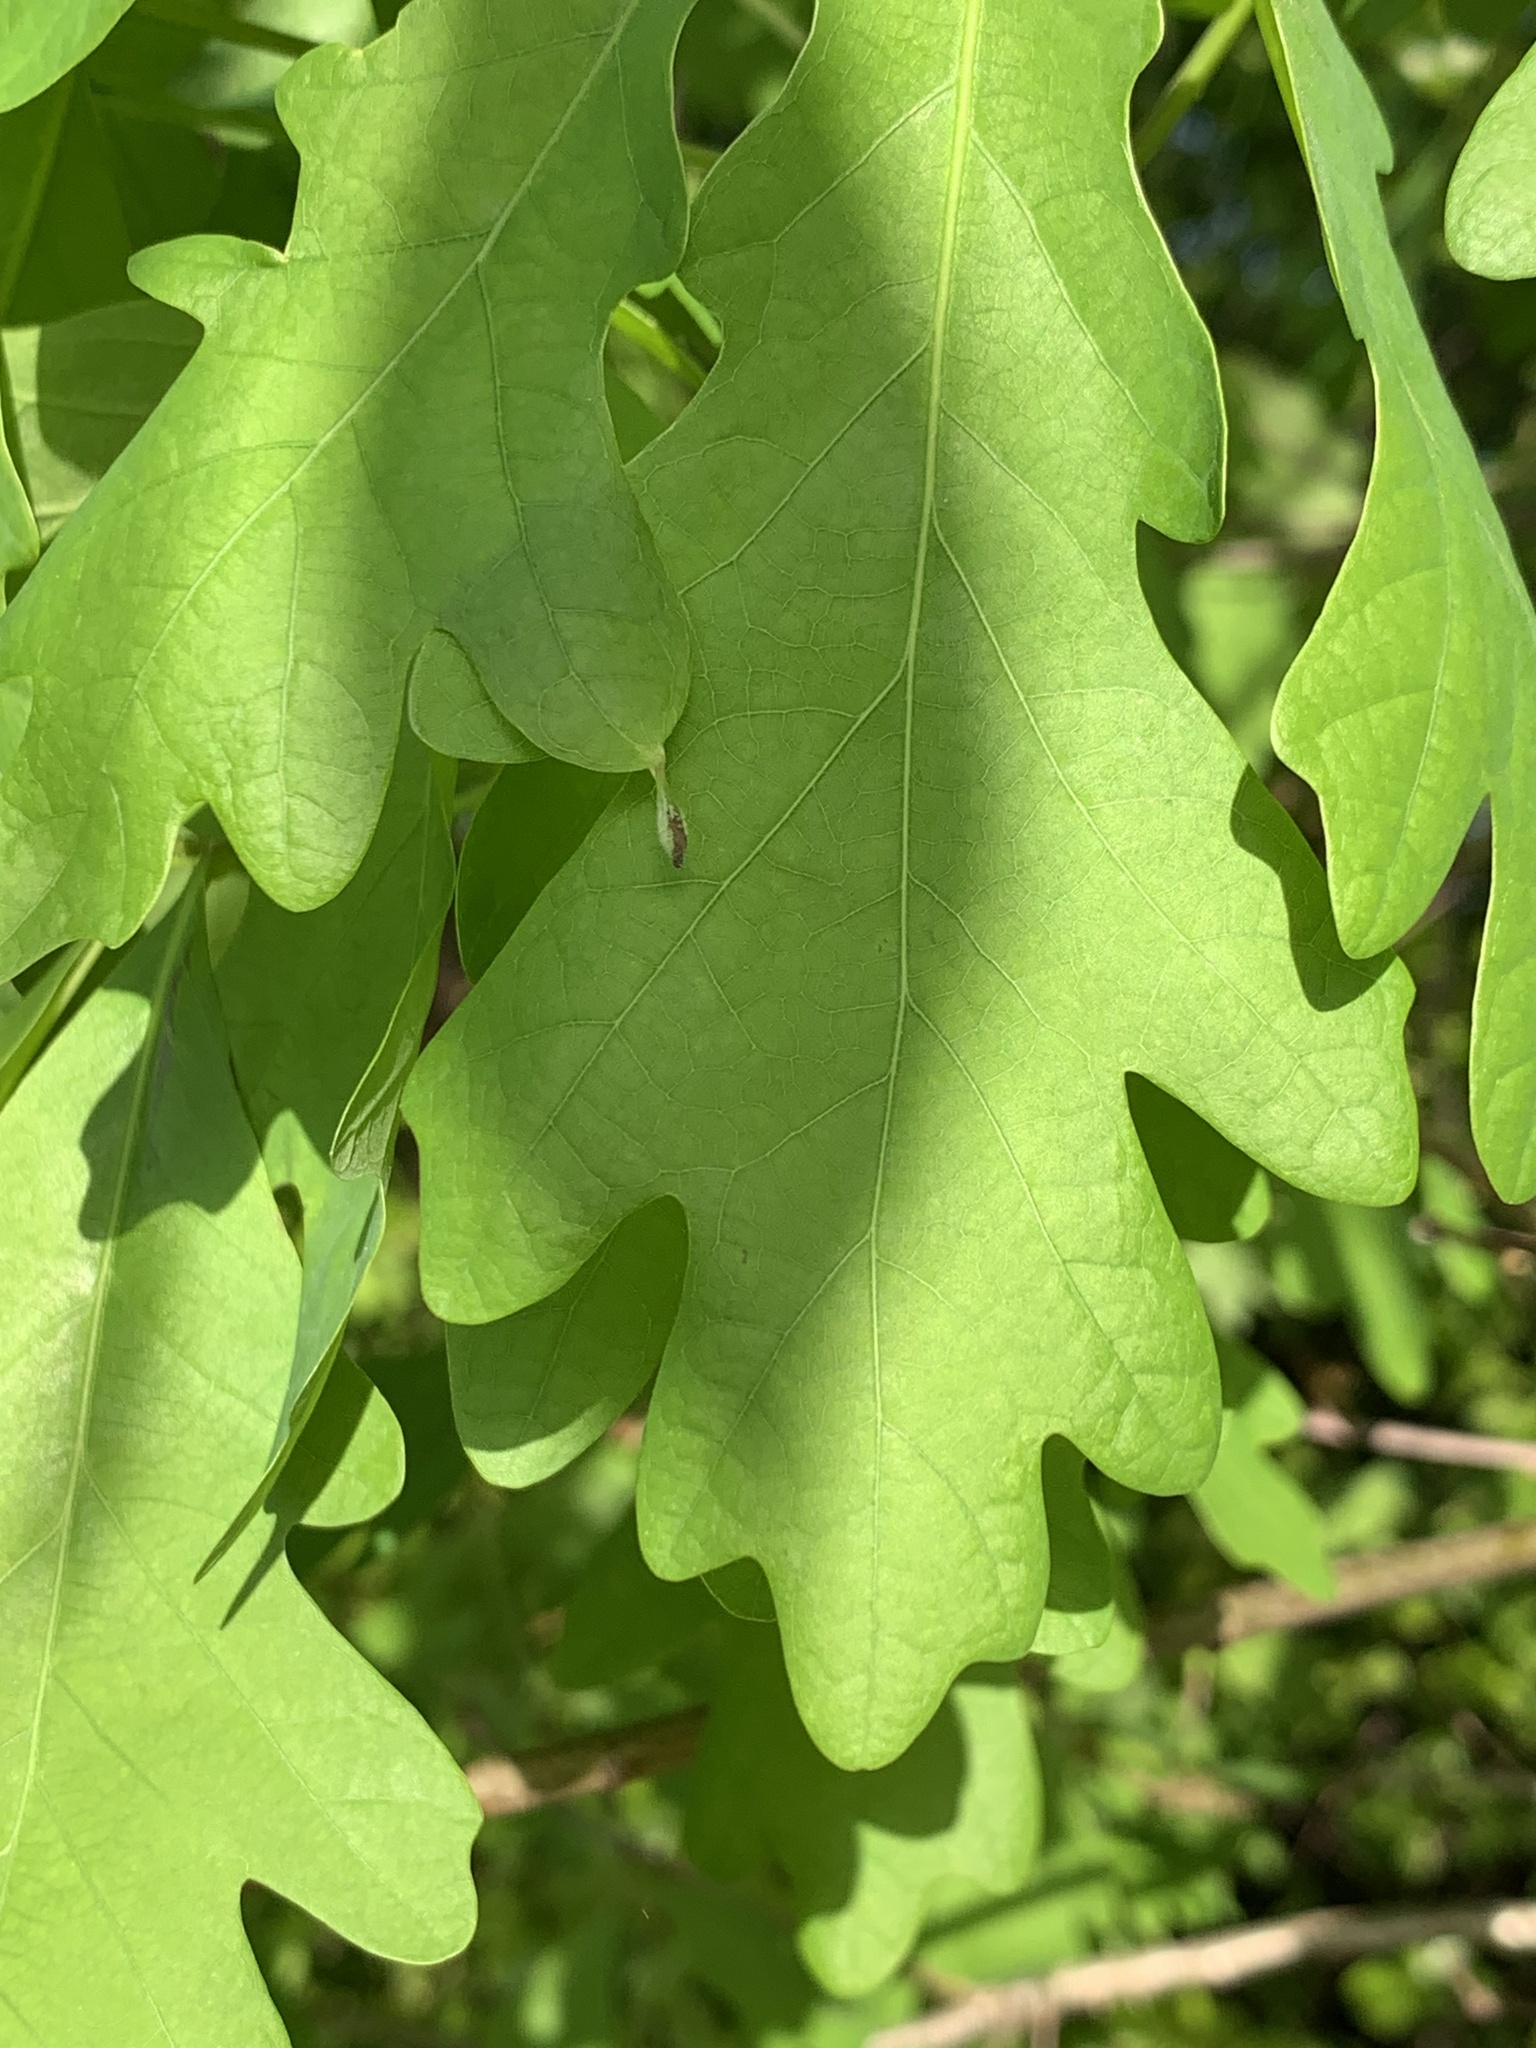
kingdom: Animalia
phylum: Arthropoda
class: Insecta
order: Hymenoptera
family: Cynipidae
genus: Andricus
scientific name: Andricus
